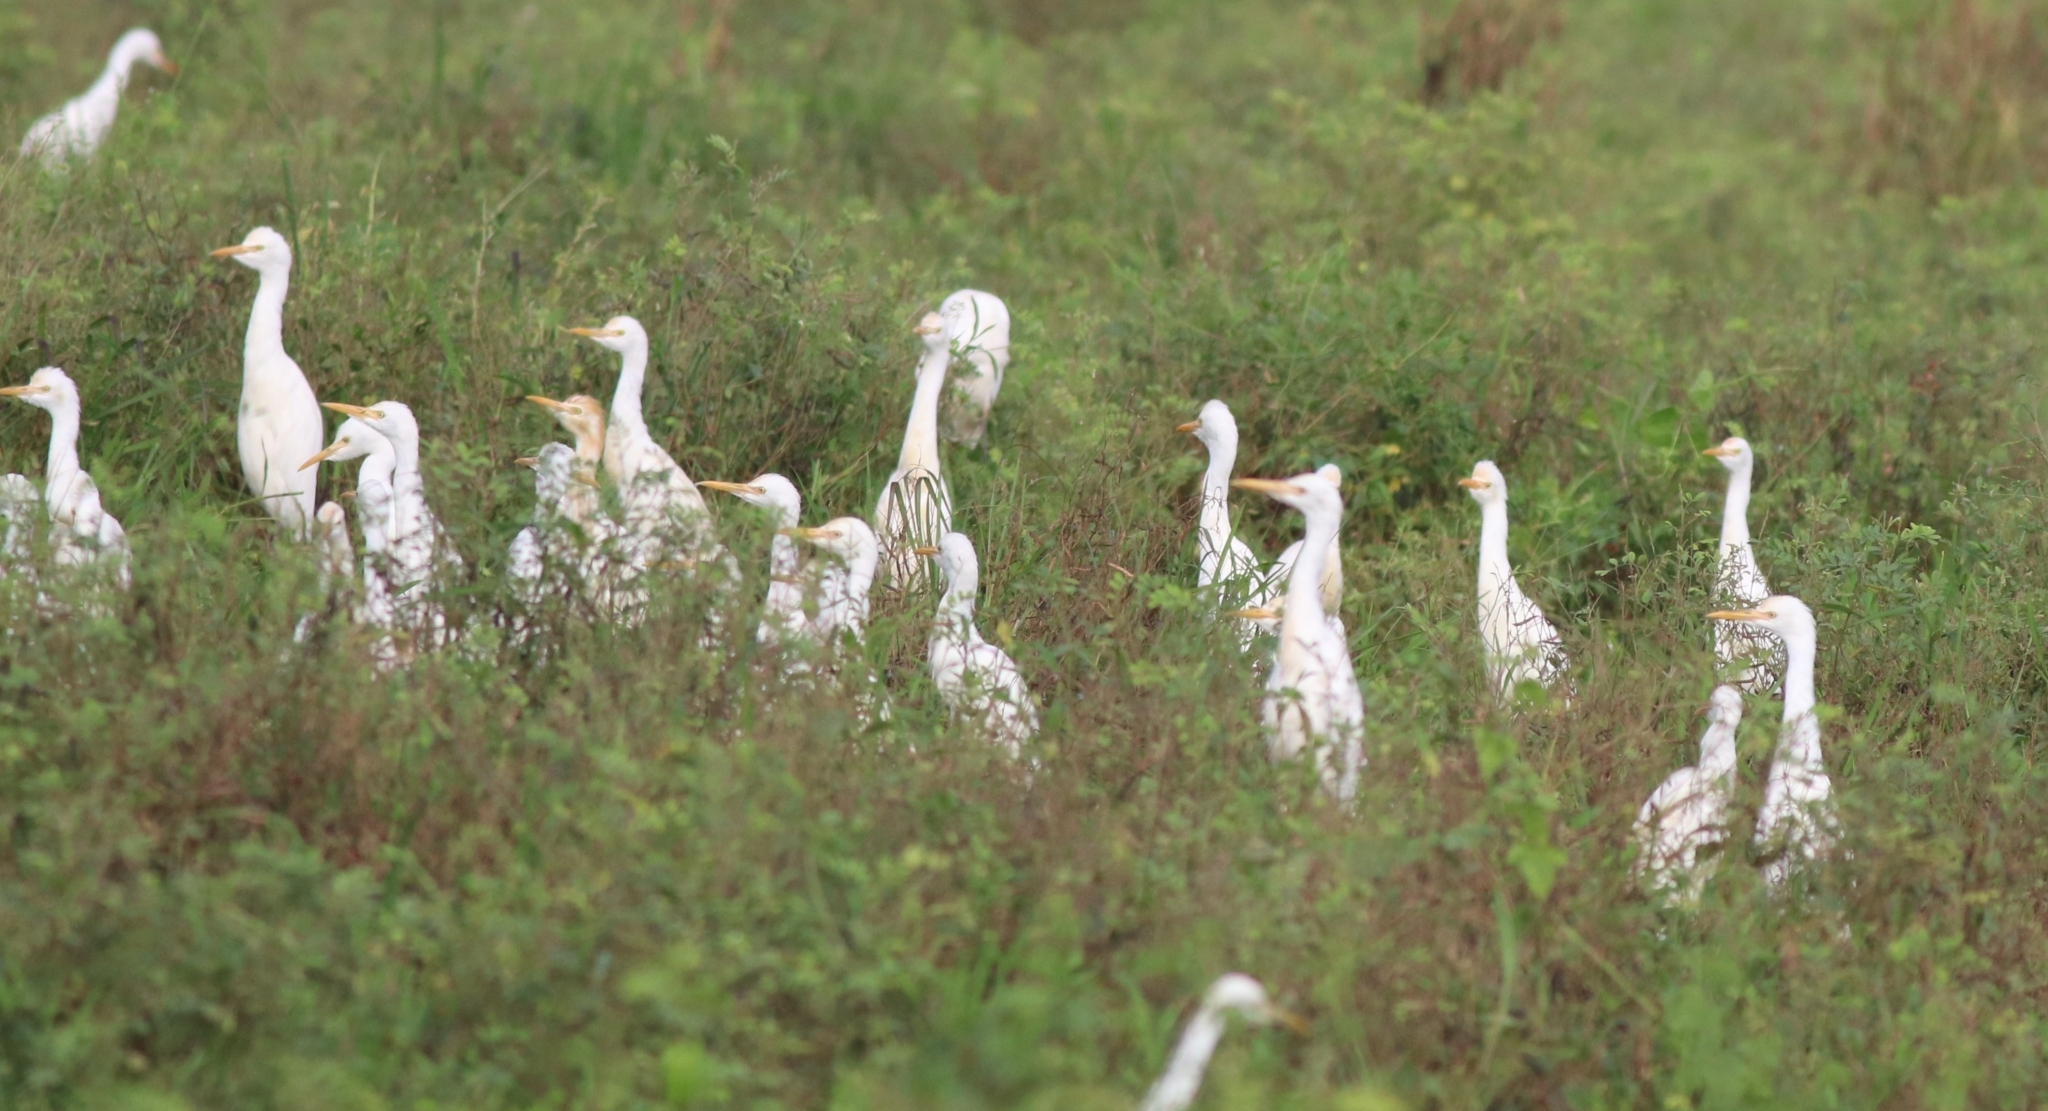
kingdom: Animalia
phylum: Chordata
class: Aves
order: Pelecaniformes
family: Ardeidae
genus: Bubulcus
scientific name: Bubulcus coromandus
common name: Eastern cattle egret
